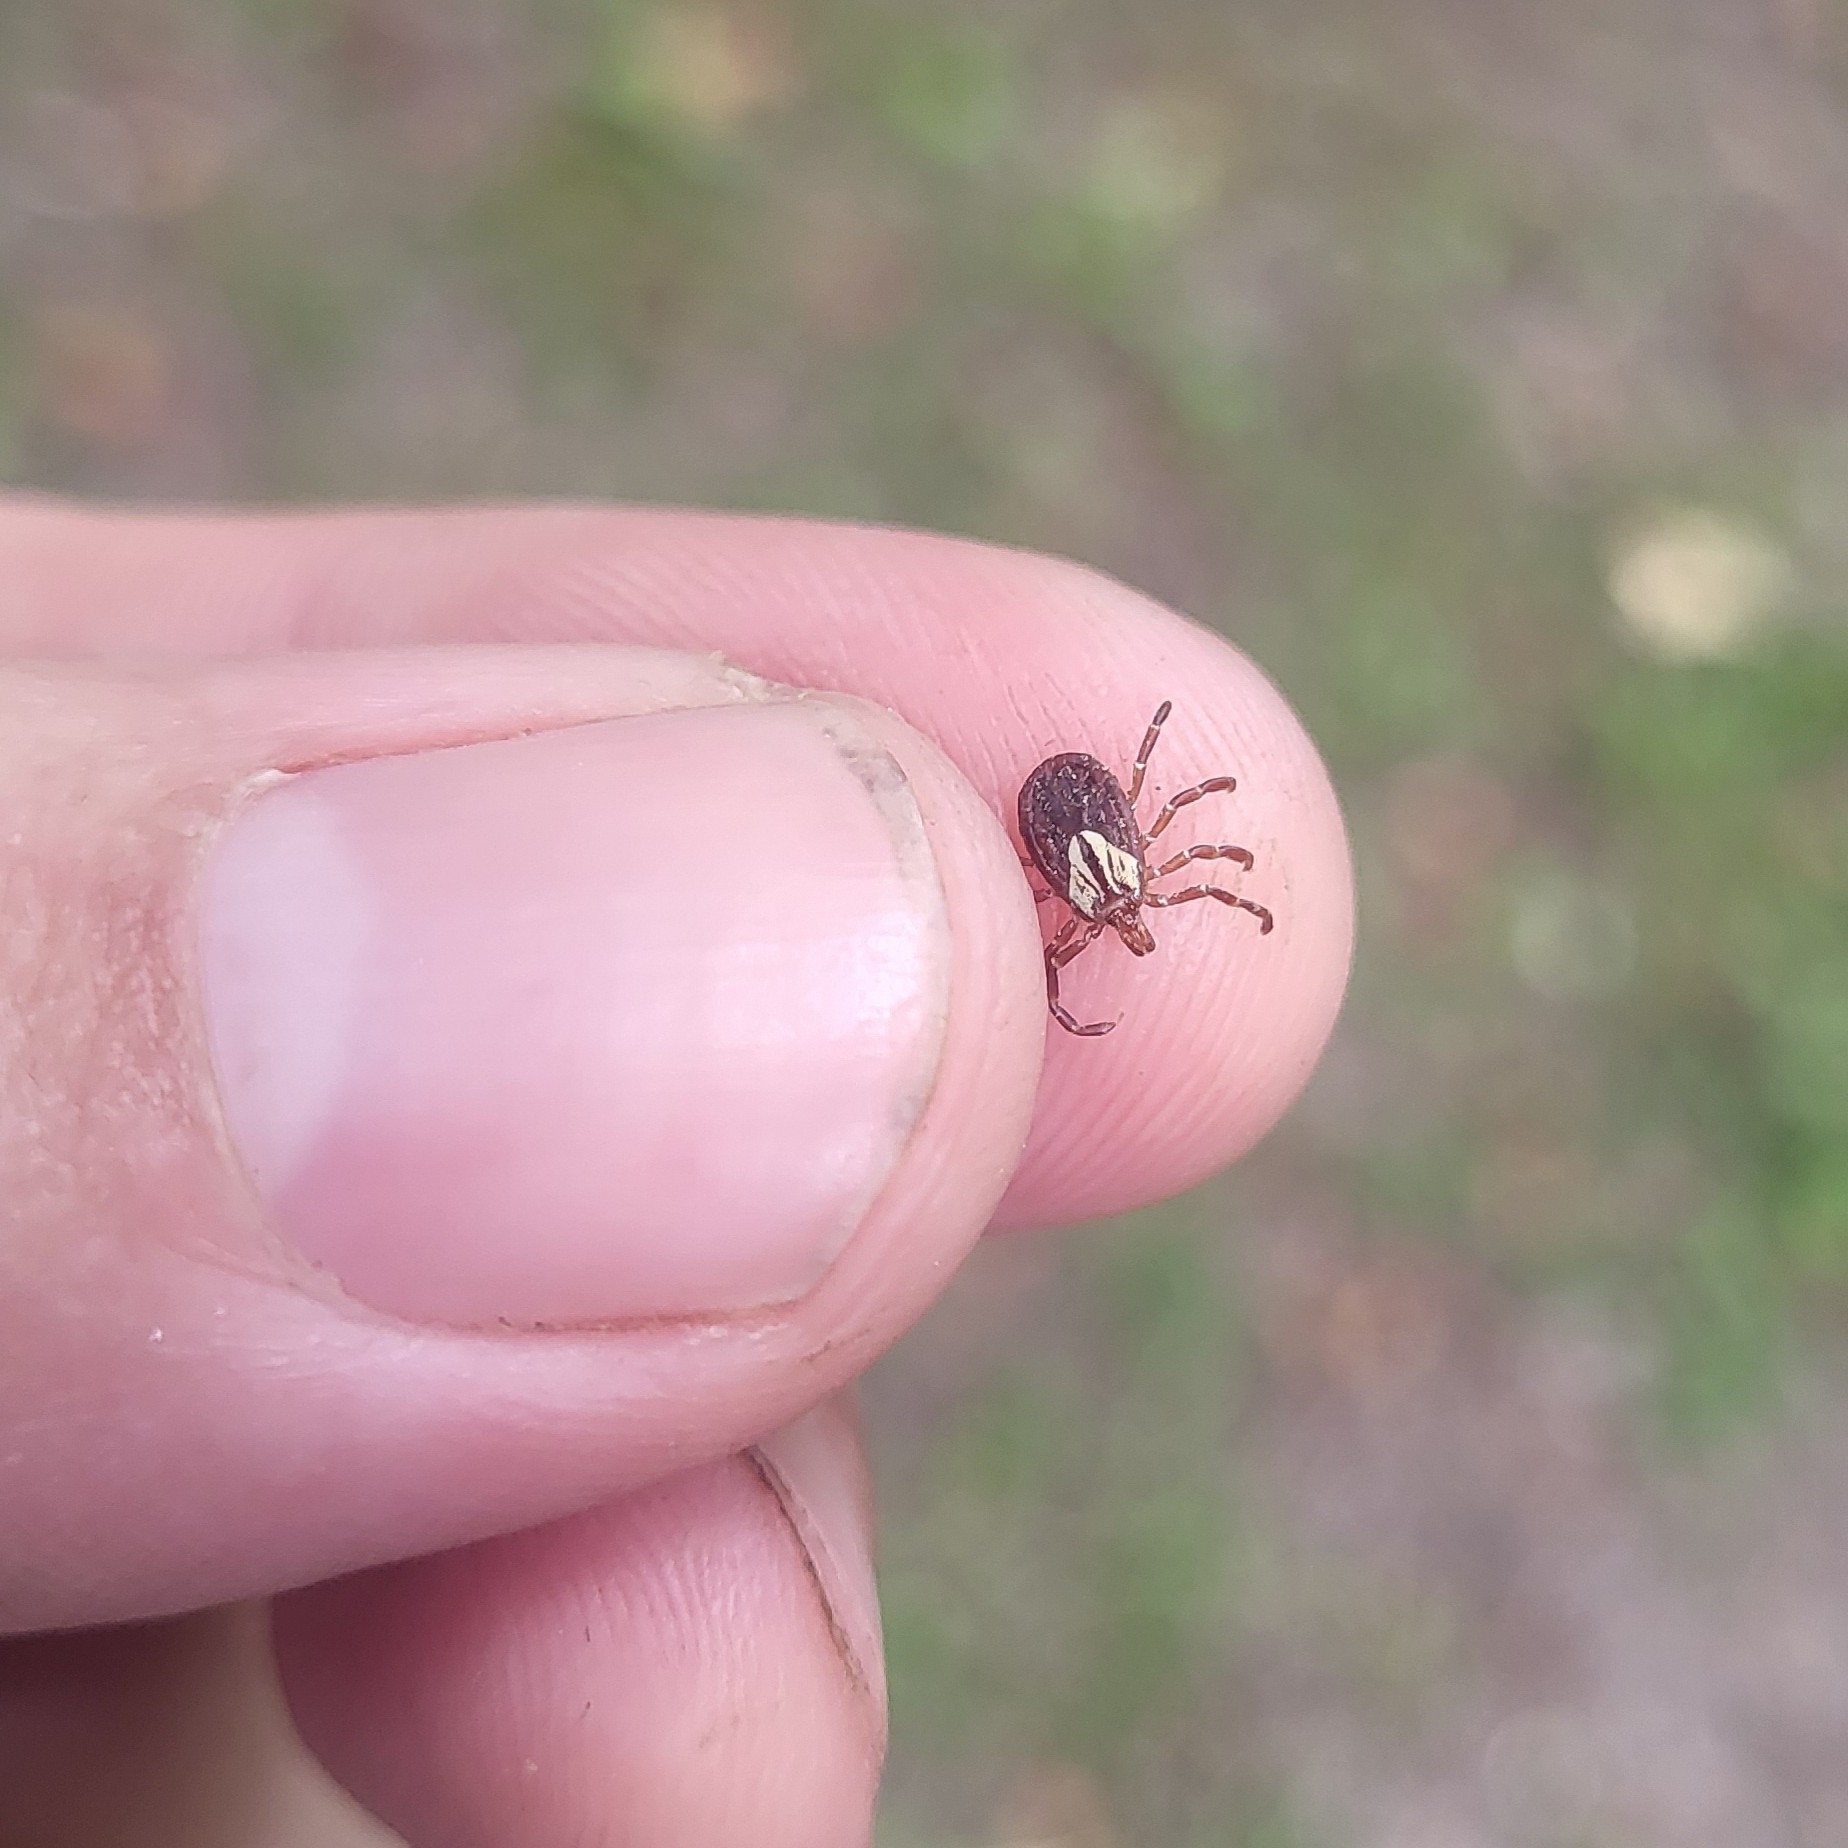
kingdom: Animalia
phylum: Arthropoda
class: Arachnida
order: Ixodida
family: Ixodidae
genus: Amblyomma
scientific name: Amblyomma maculatum
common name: Gulf coast tick
